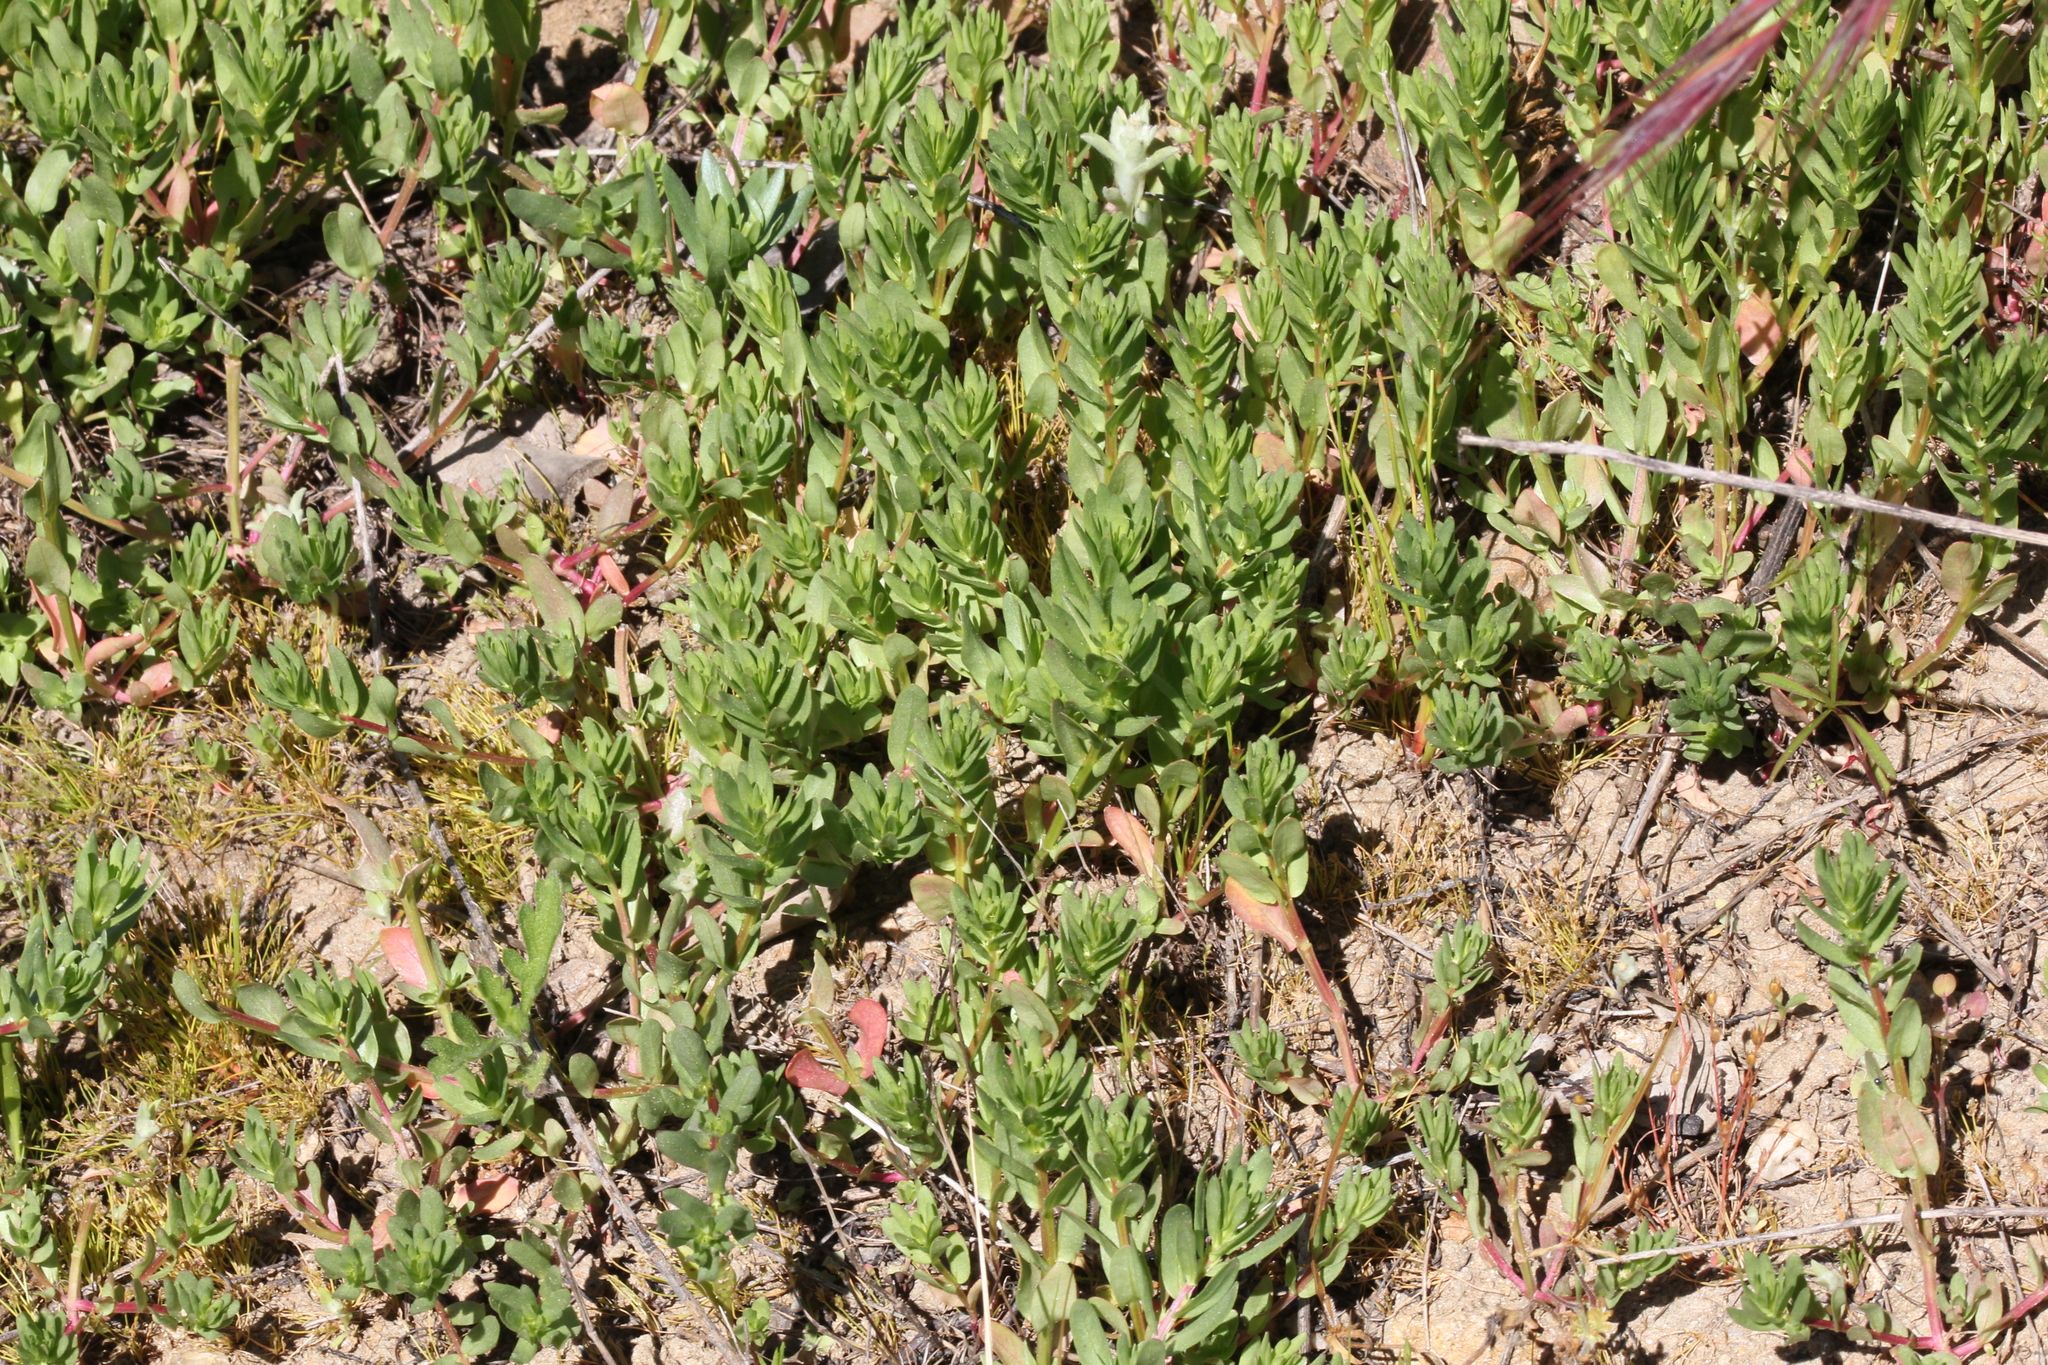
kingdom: Plantae
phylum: Tracheophyta
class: Magnoliopsida
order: Myrtales
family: Lythraceae
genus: Lythrum
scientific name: Lythrum hyssopifolia
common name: Grass-poly
